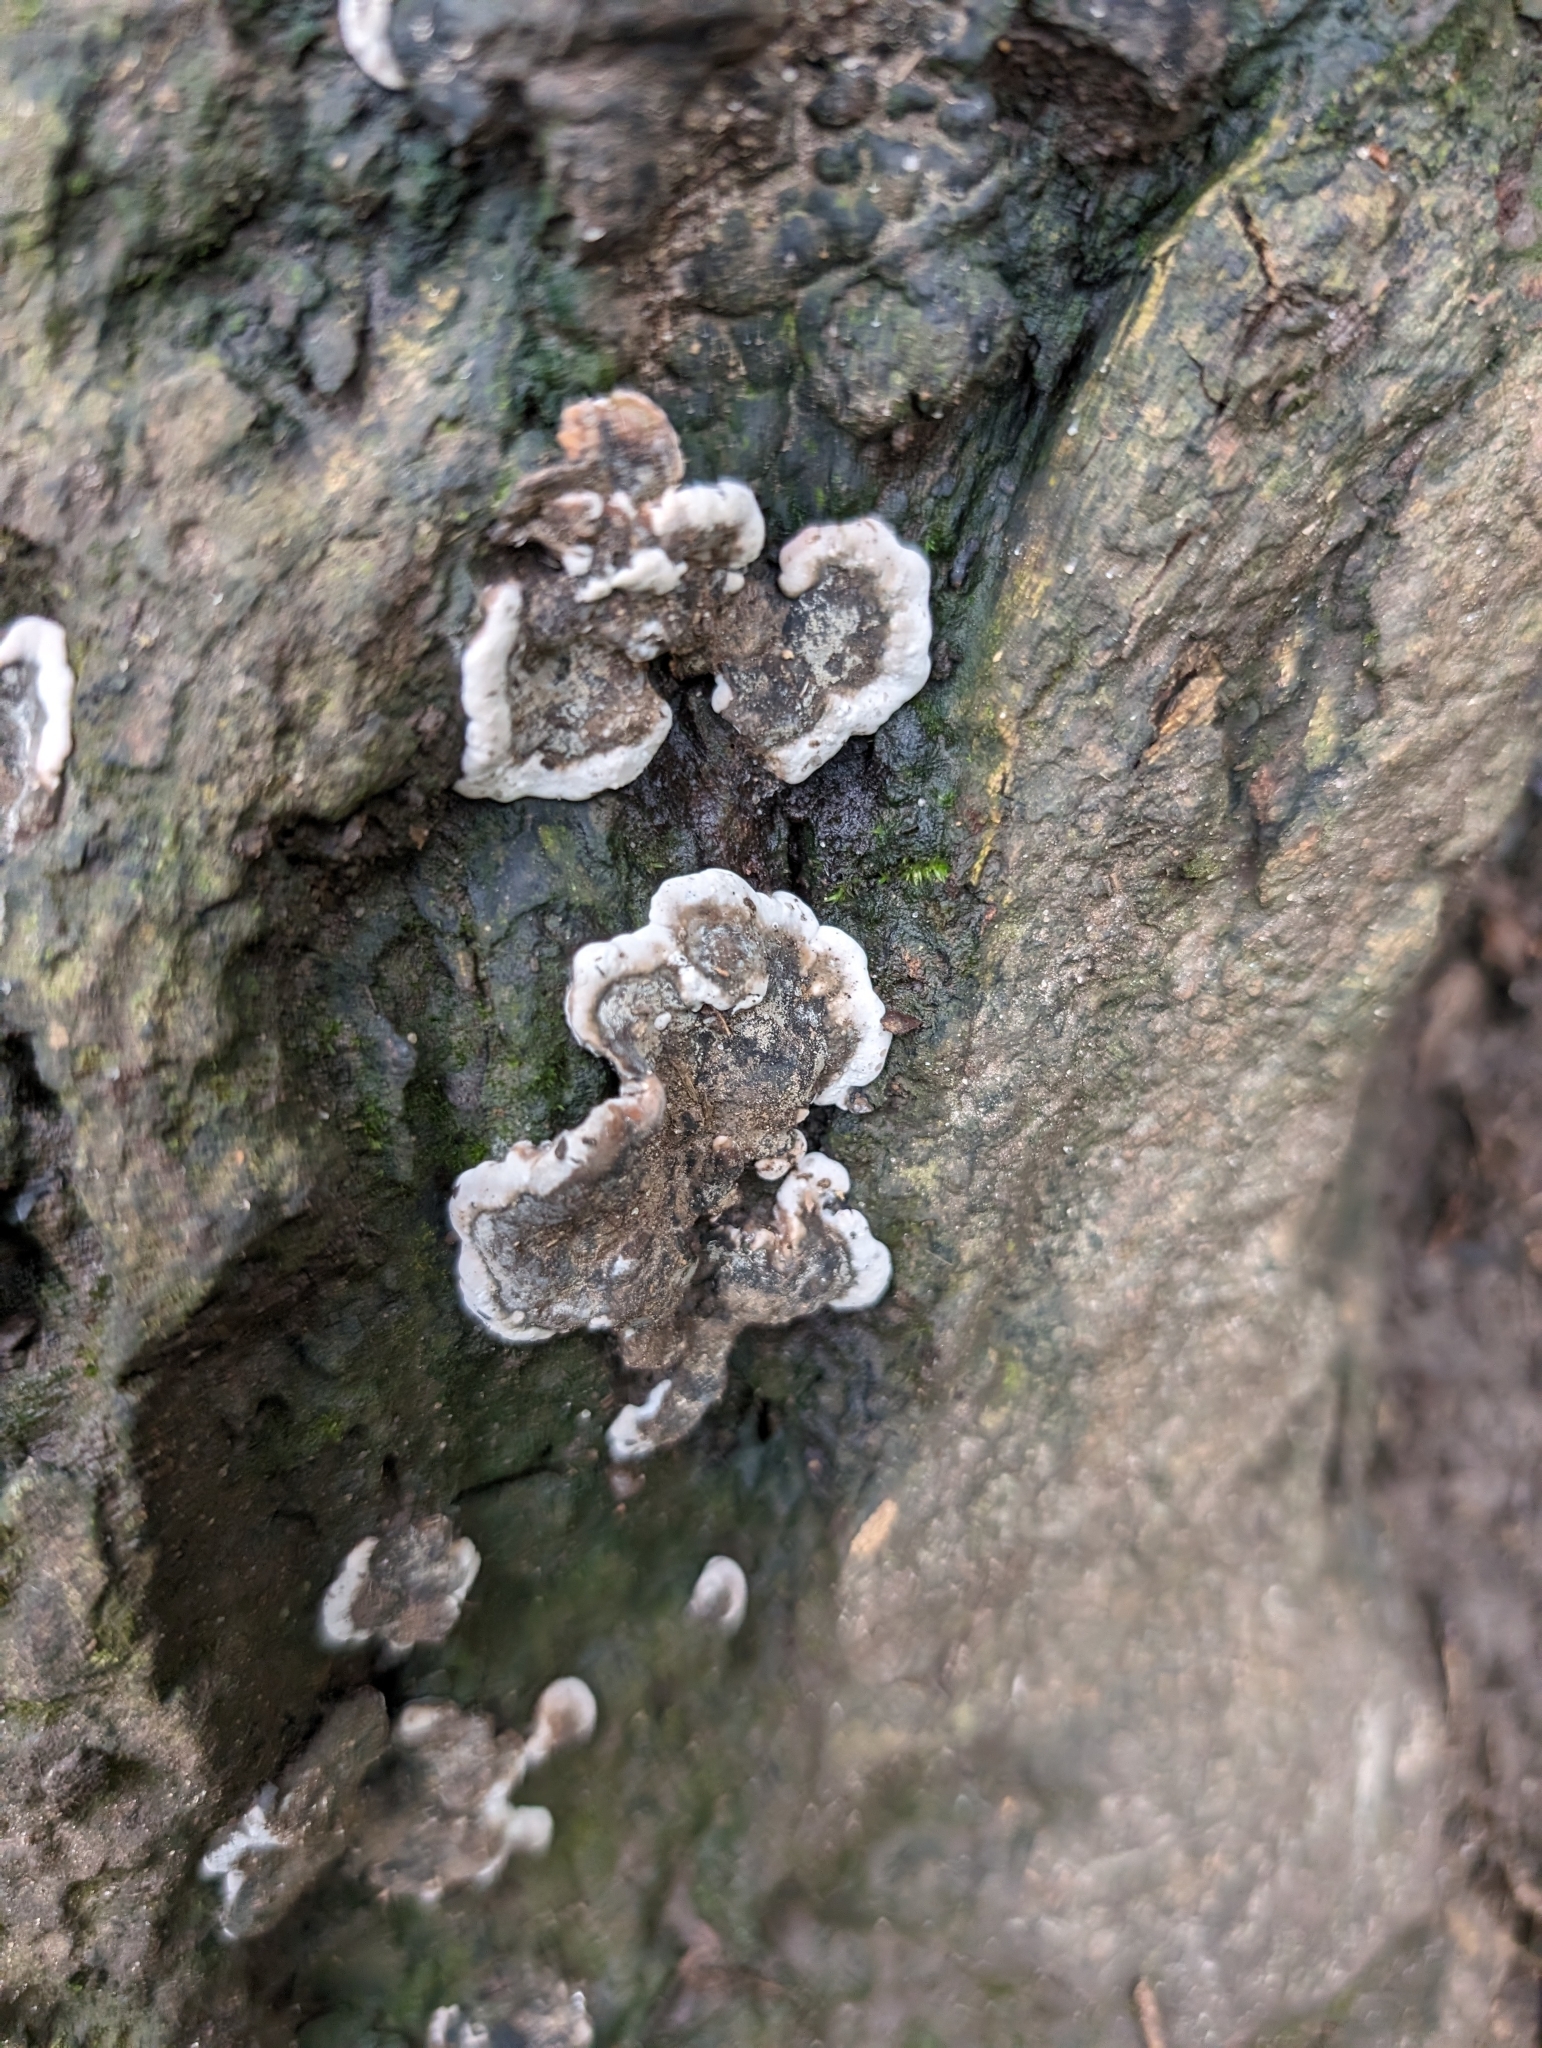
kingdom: Fungi
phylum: Ascomycota
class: Sordariomycetes
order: Xylariales
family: Xylariaceae
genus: Kretzschmaria
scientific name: Kretzschmaria deusta
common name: Brittle cinder
